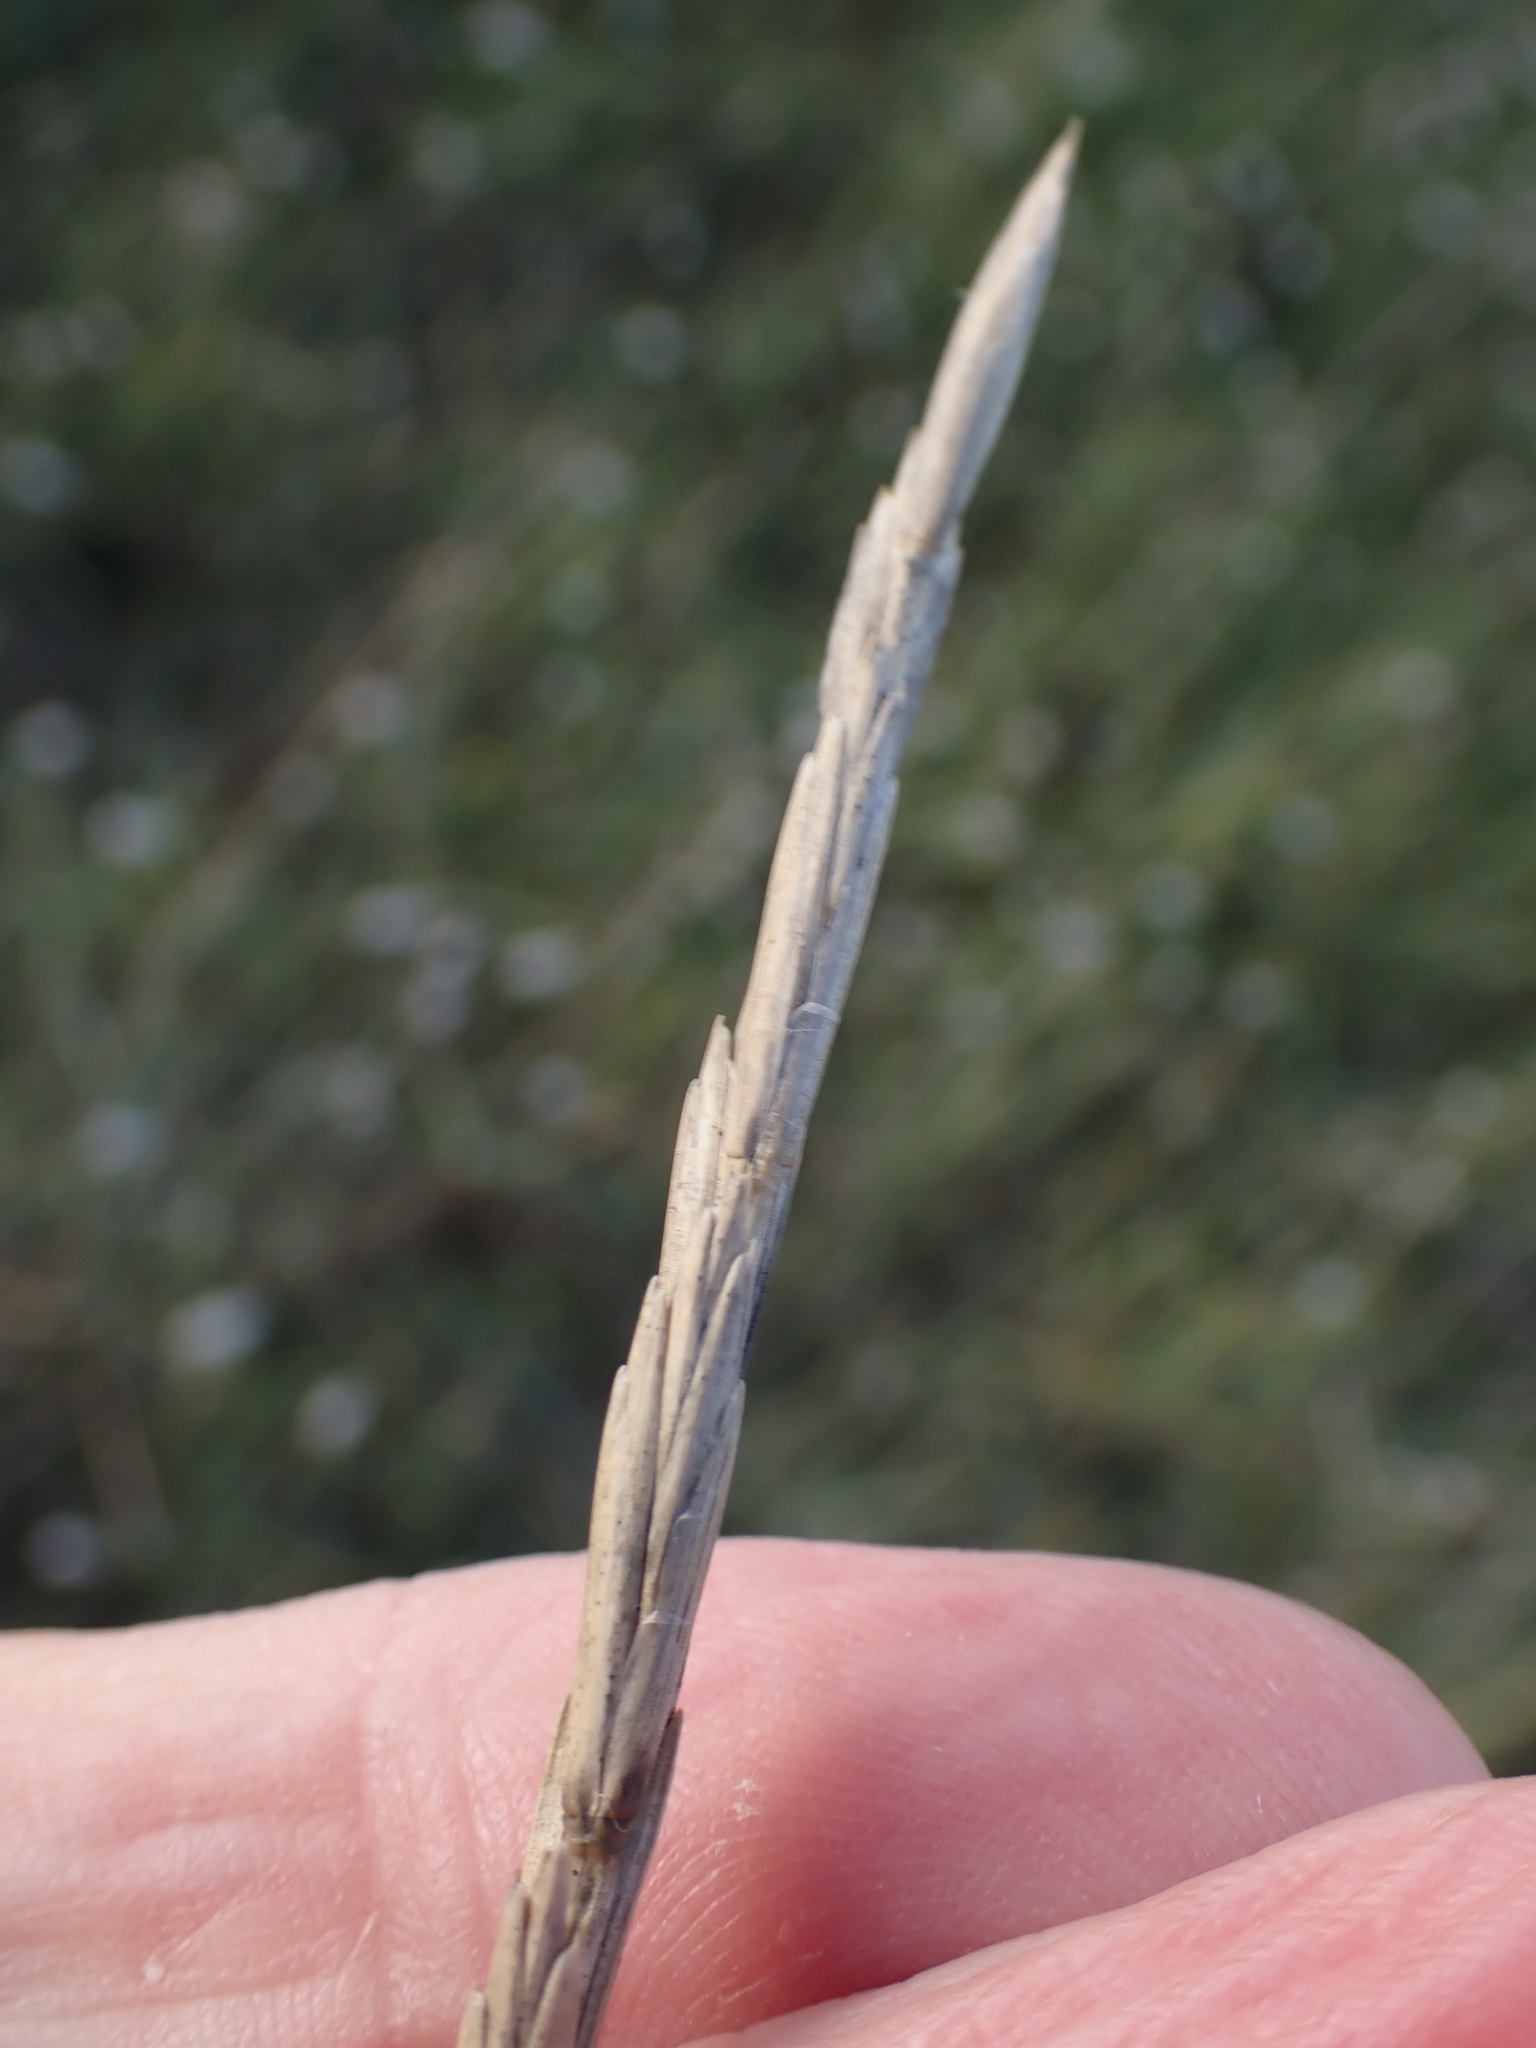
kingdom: Plantae
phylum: Tracheophyta
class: Liliopsida
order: Poales
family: Poaceae
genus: Thinopyrum
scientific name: Thinopyrum junceum
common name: Russian wheatgrass
